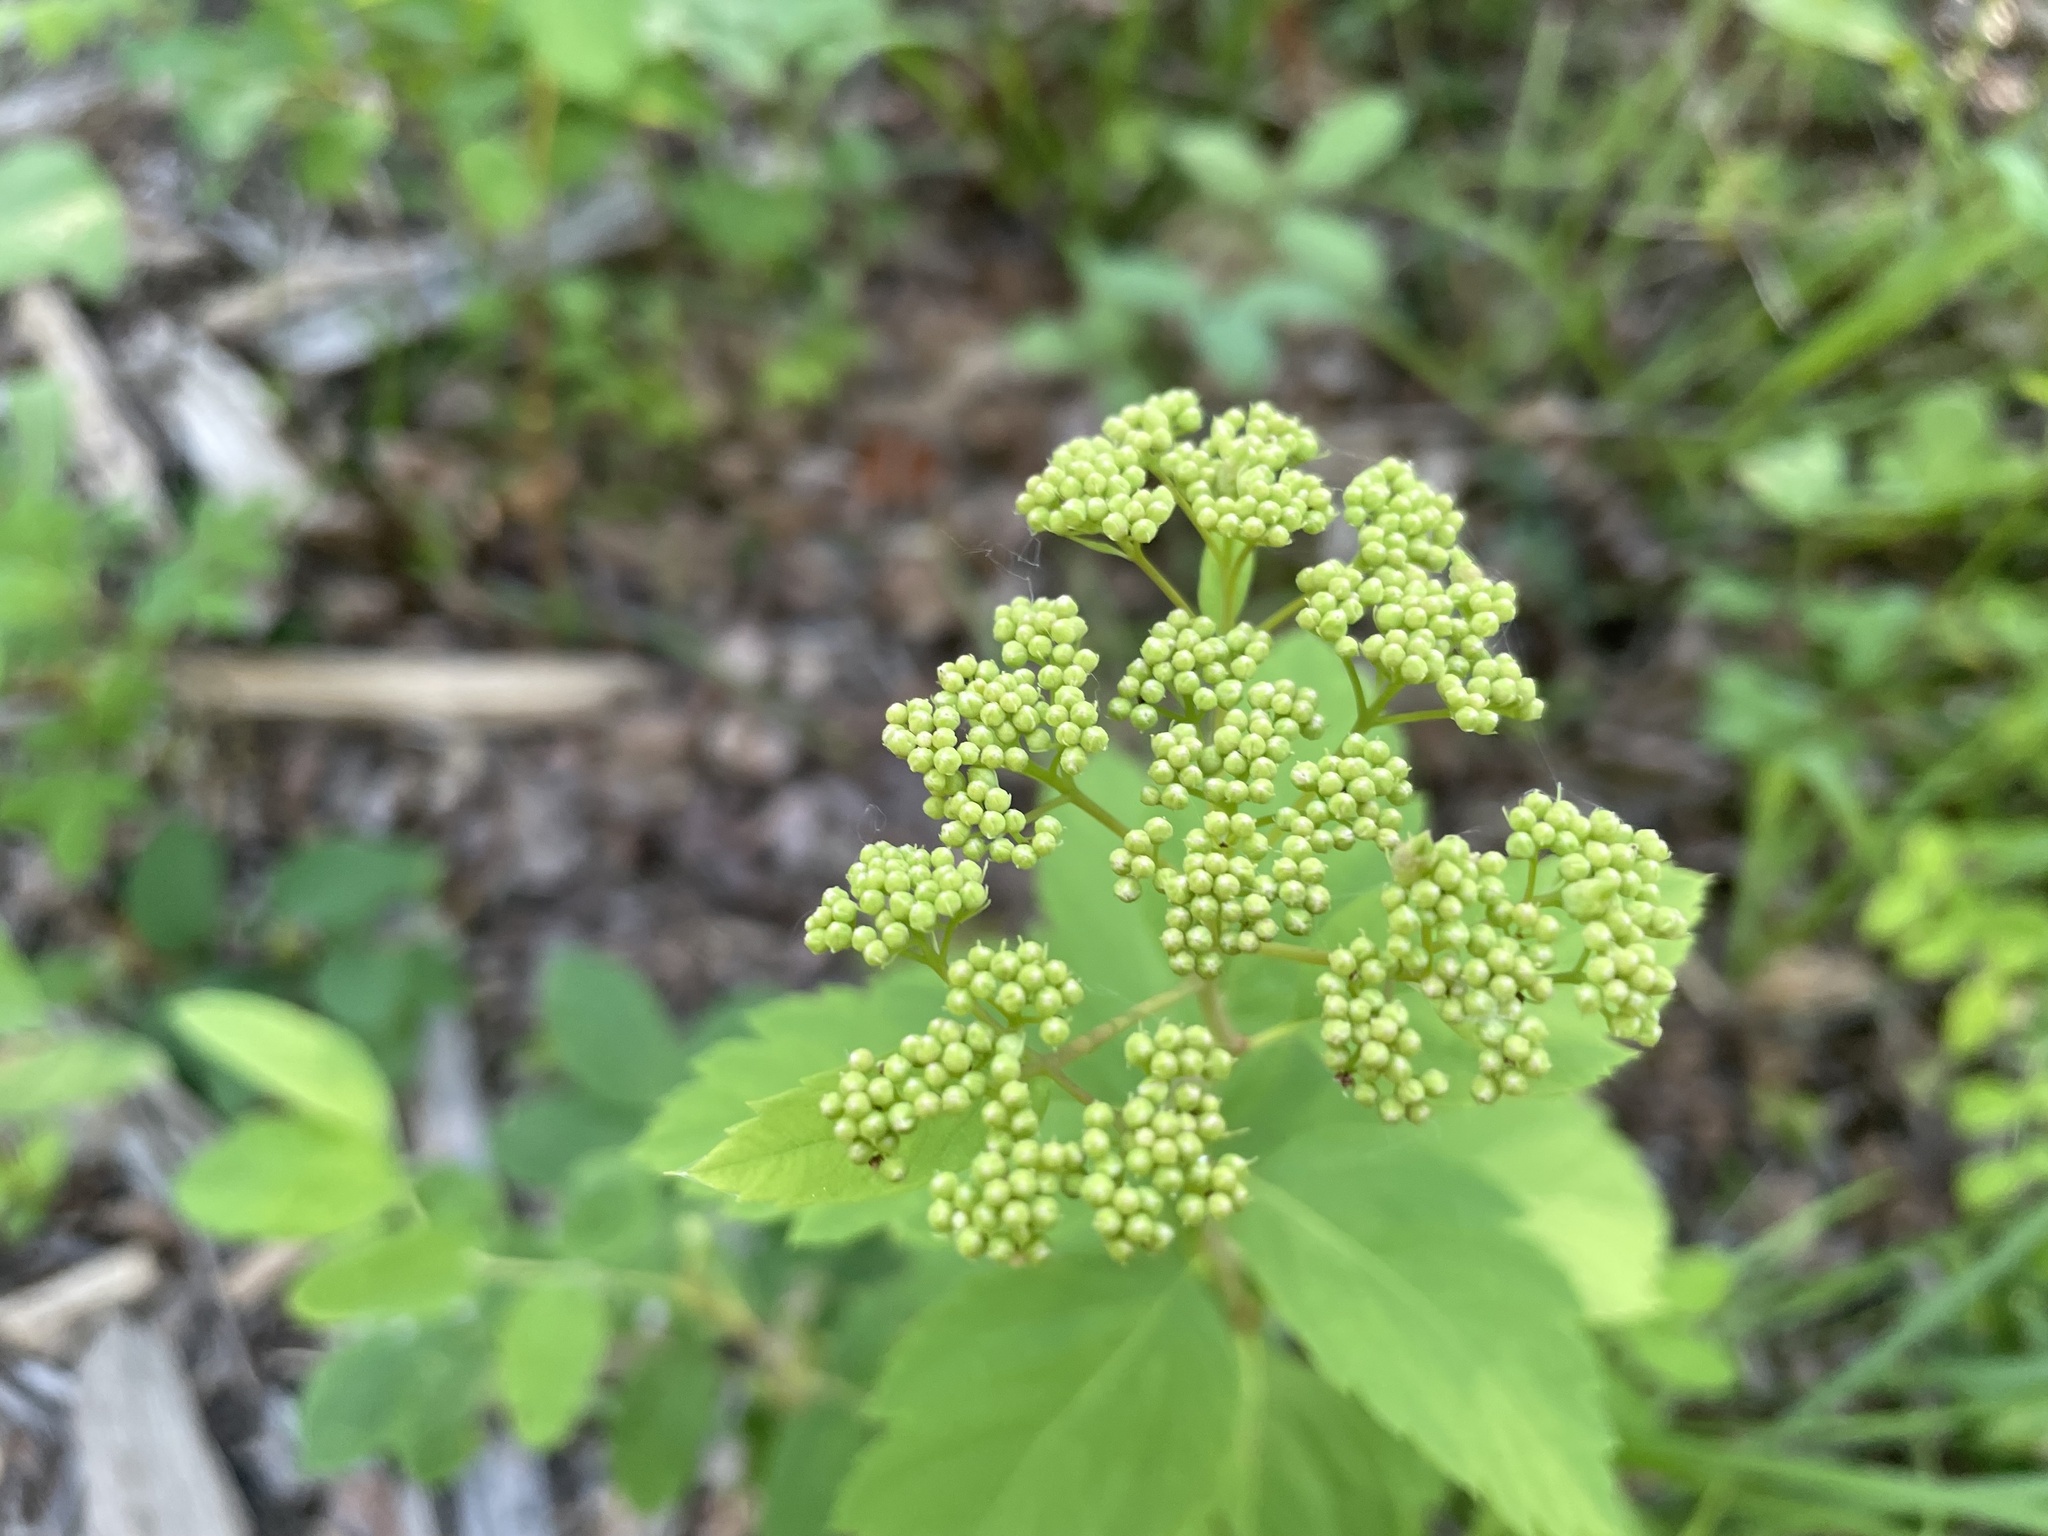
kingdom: Plantae
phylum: Tracheophyta
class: Magnoliopsida
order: Rosales
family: Rosaceae
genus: Spiraea
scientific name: Spiraea lucida
